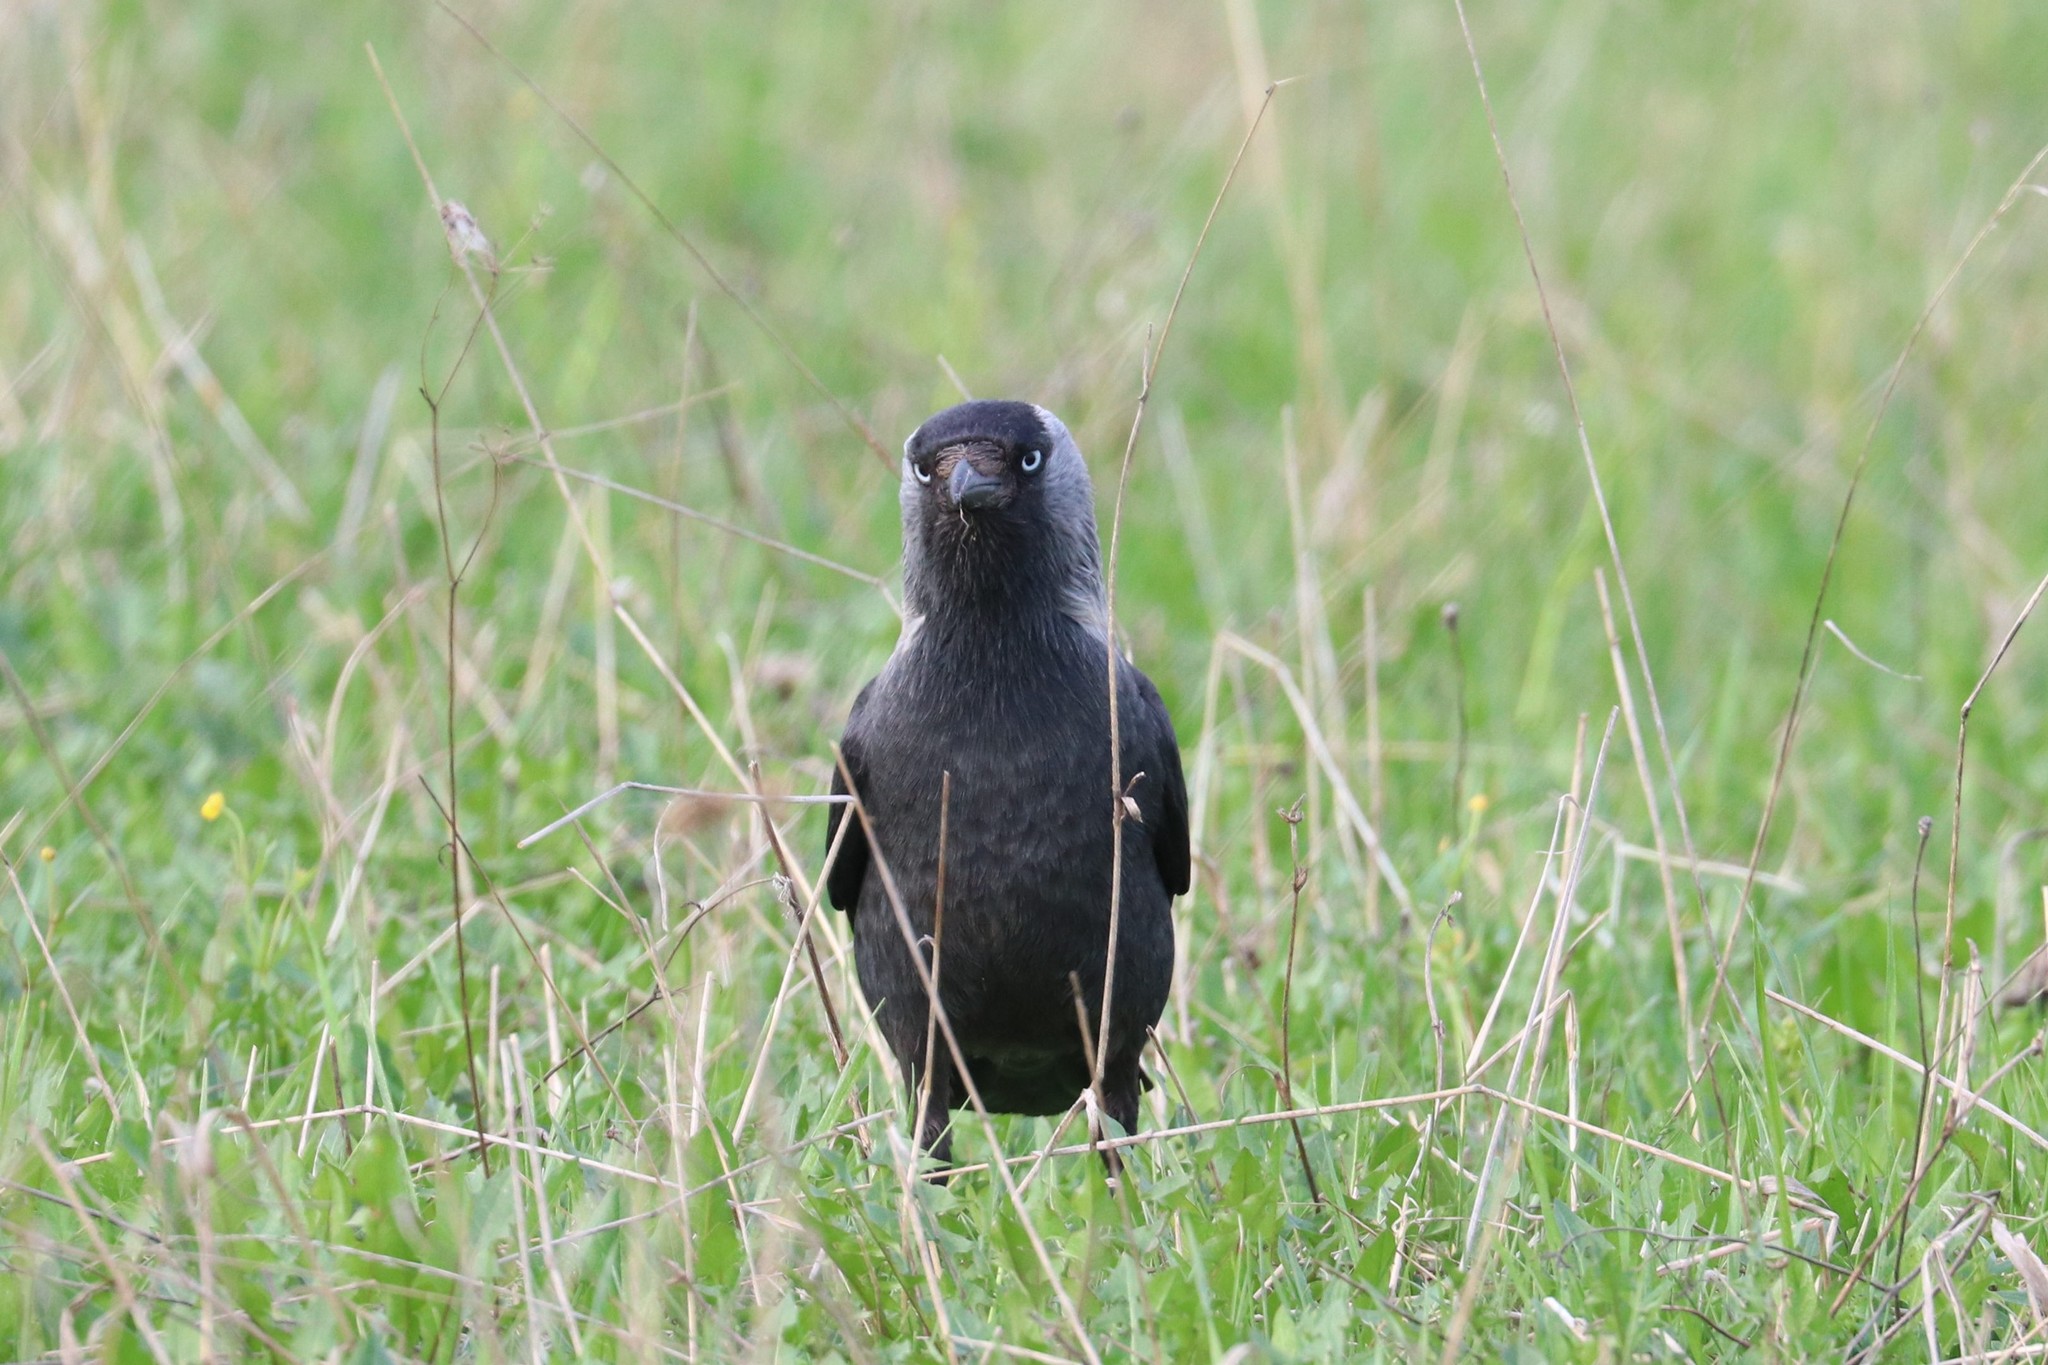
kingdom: Animalia
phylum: Chordata
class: Aves
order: Passeriformes
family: Corvidae
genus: Coloeus
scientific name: Coloeus monedula
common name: Western jackdaw
